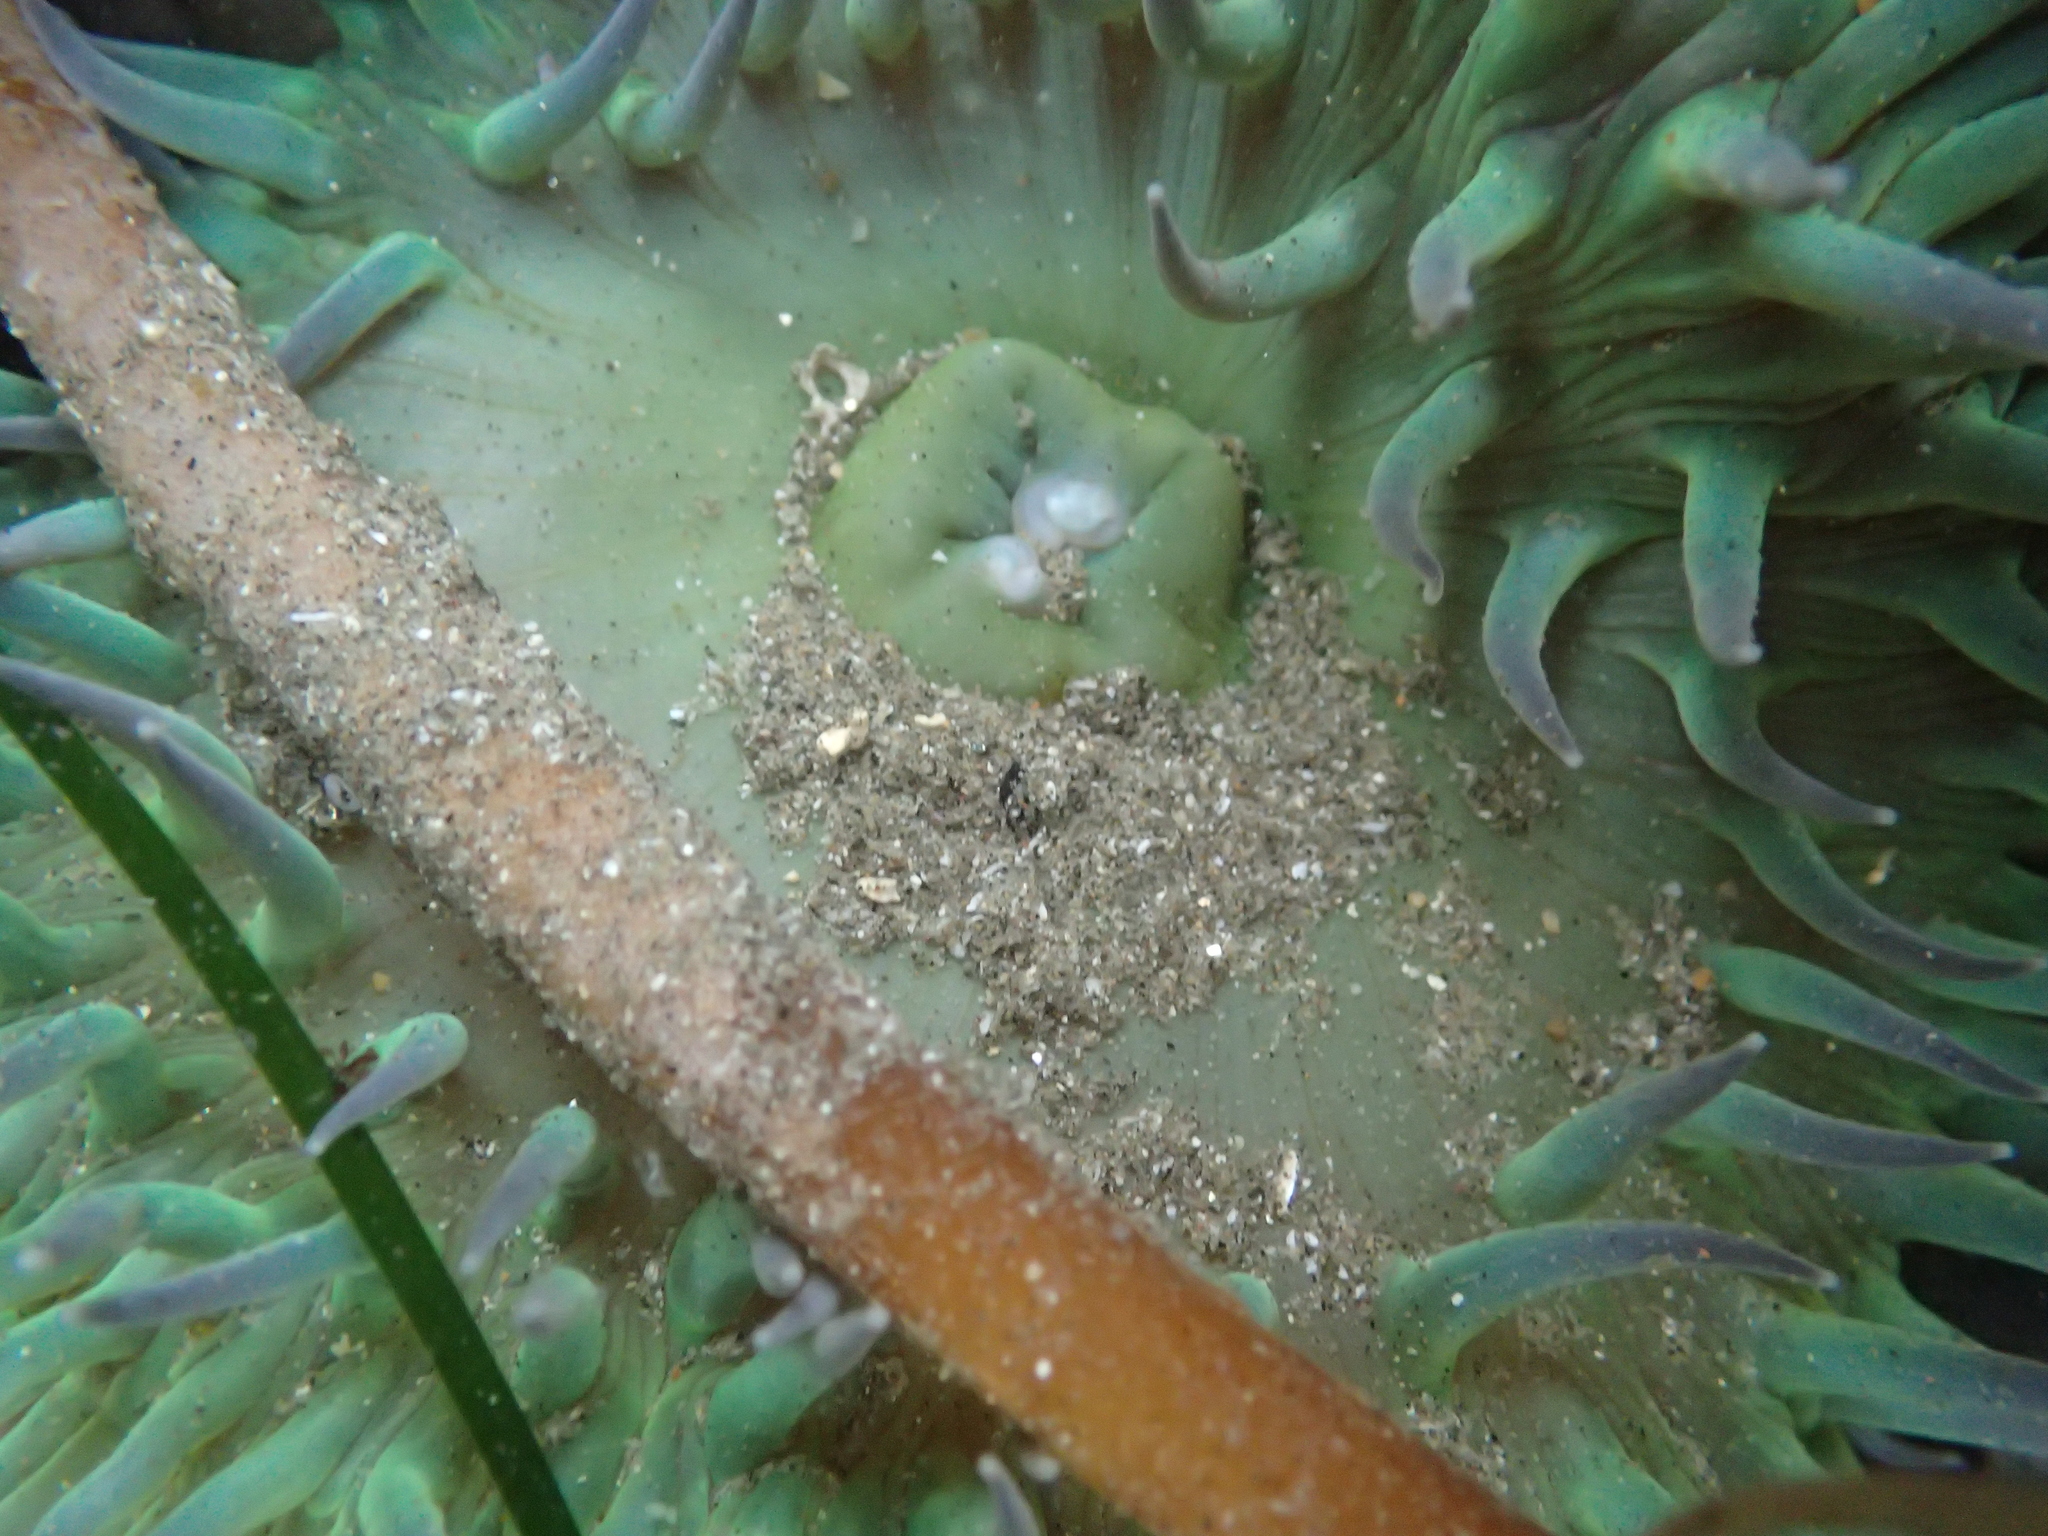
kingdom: Animalia
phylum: Cnidaria
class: Anthozoa
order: Actiniaria
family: Actiniidae
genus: Anthopleura
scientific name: Anthopleura xanthogrammica
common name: Giant green anemone
